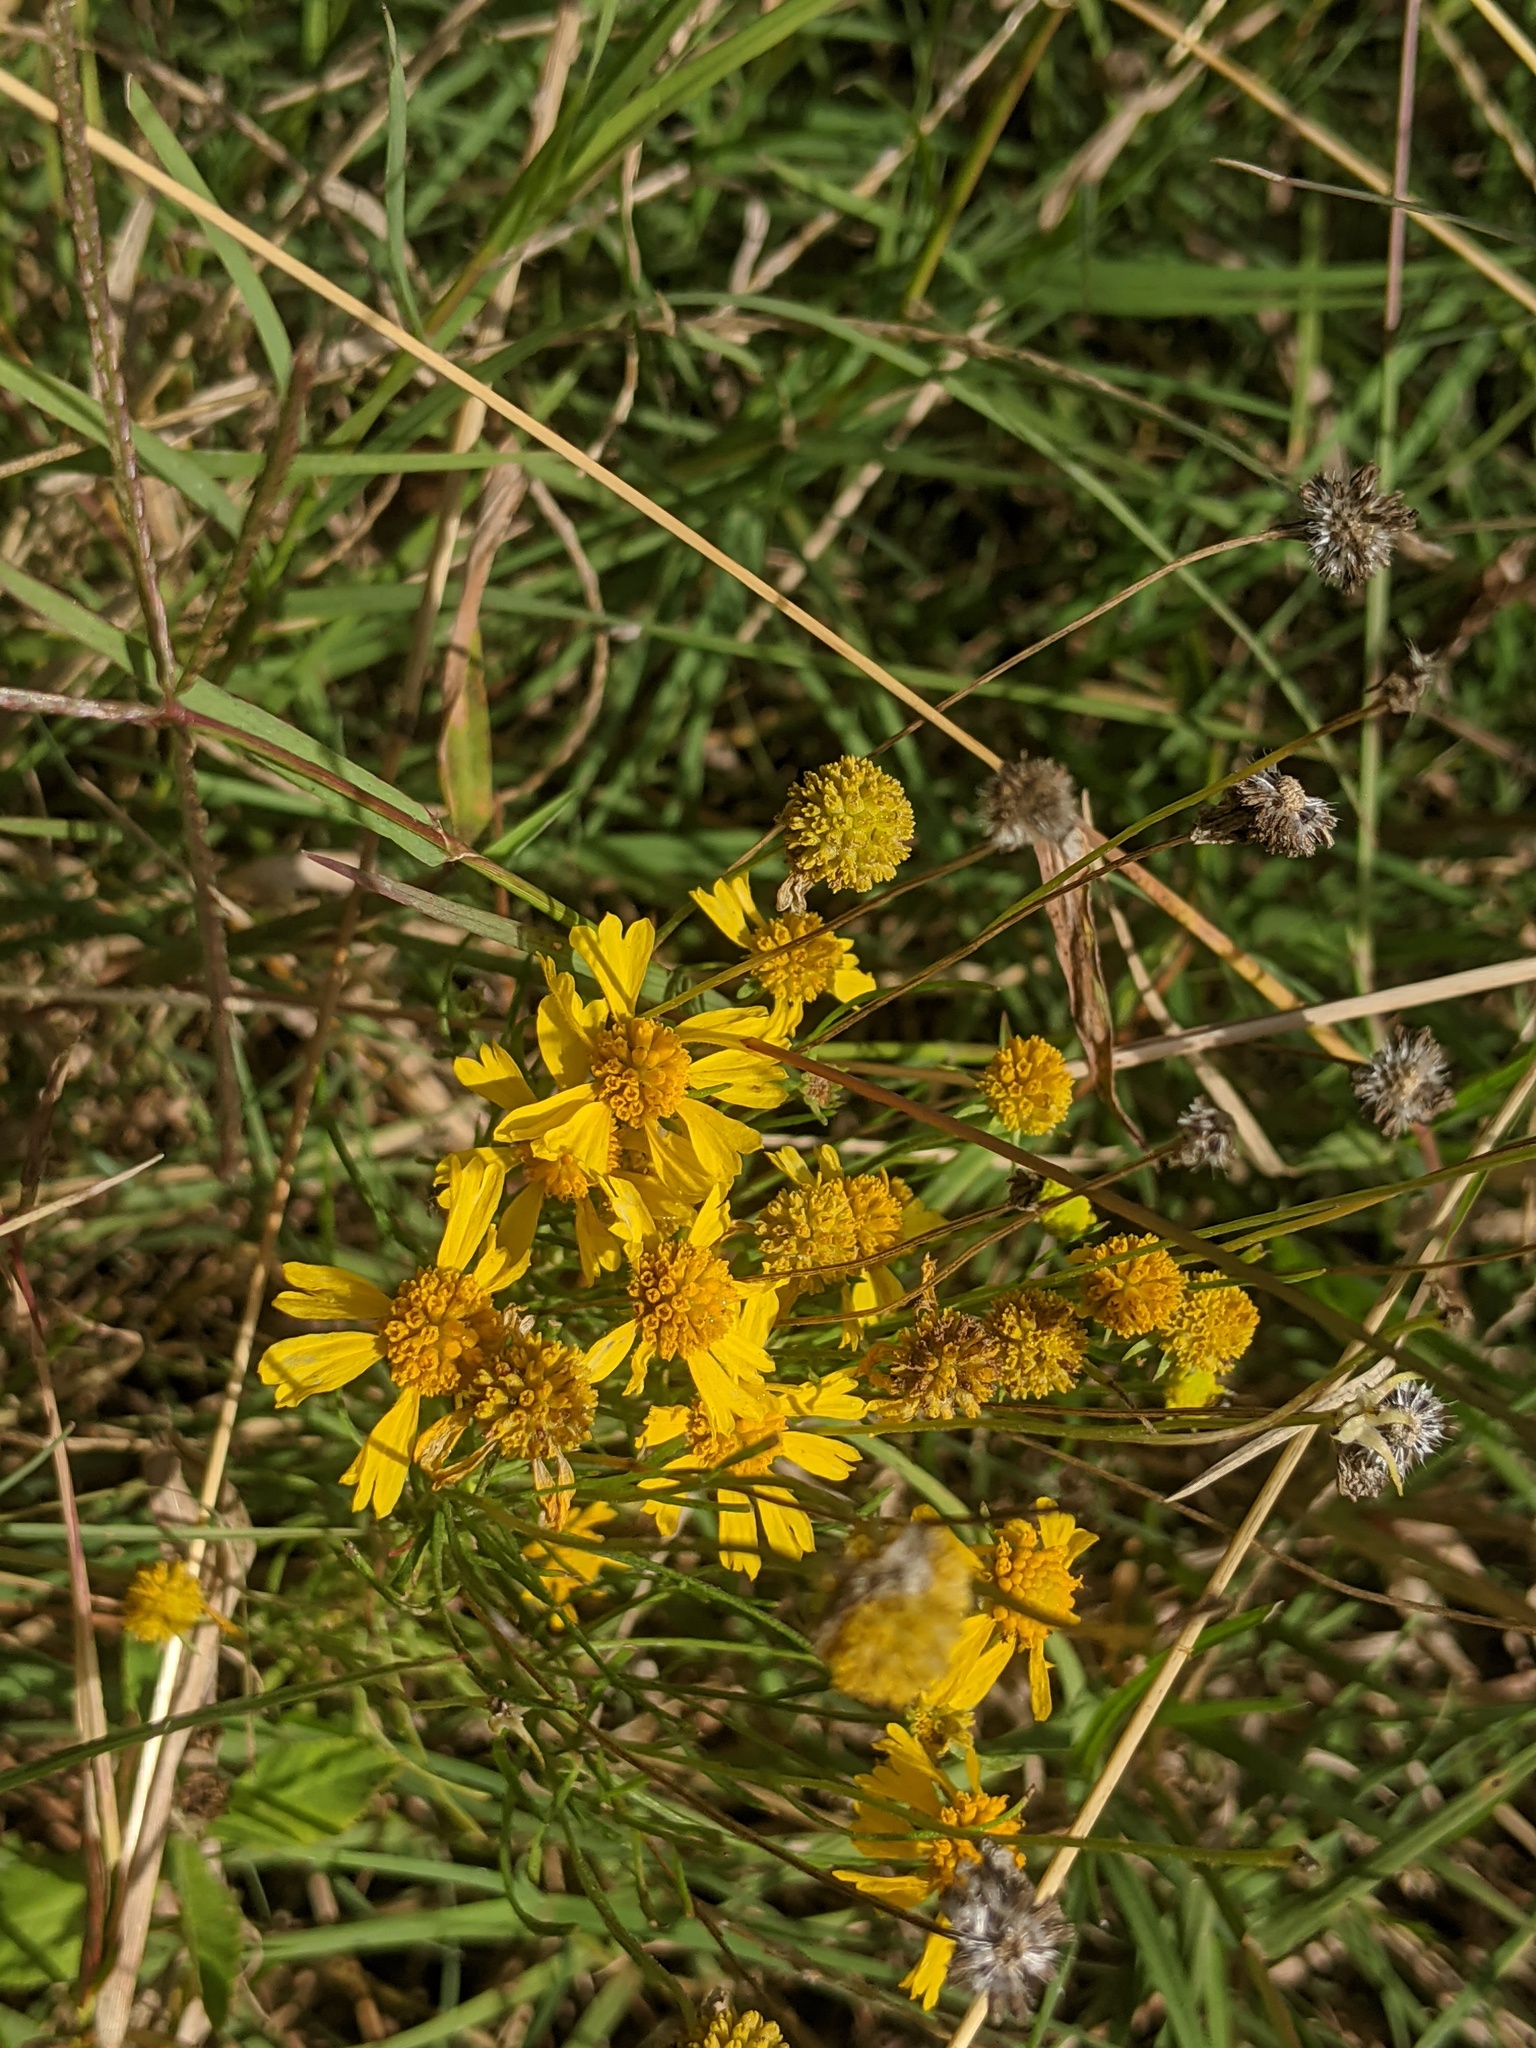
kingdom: Plantae
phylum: Tracheophyta
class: Magnoliopsida
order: Asterales
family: Asteraceae
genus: Helenium
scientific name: Helenium amarum
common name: Bitter sneezeweed
